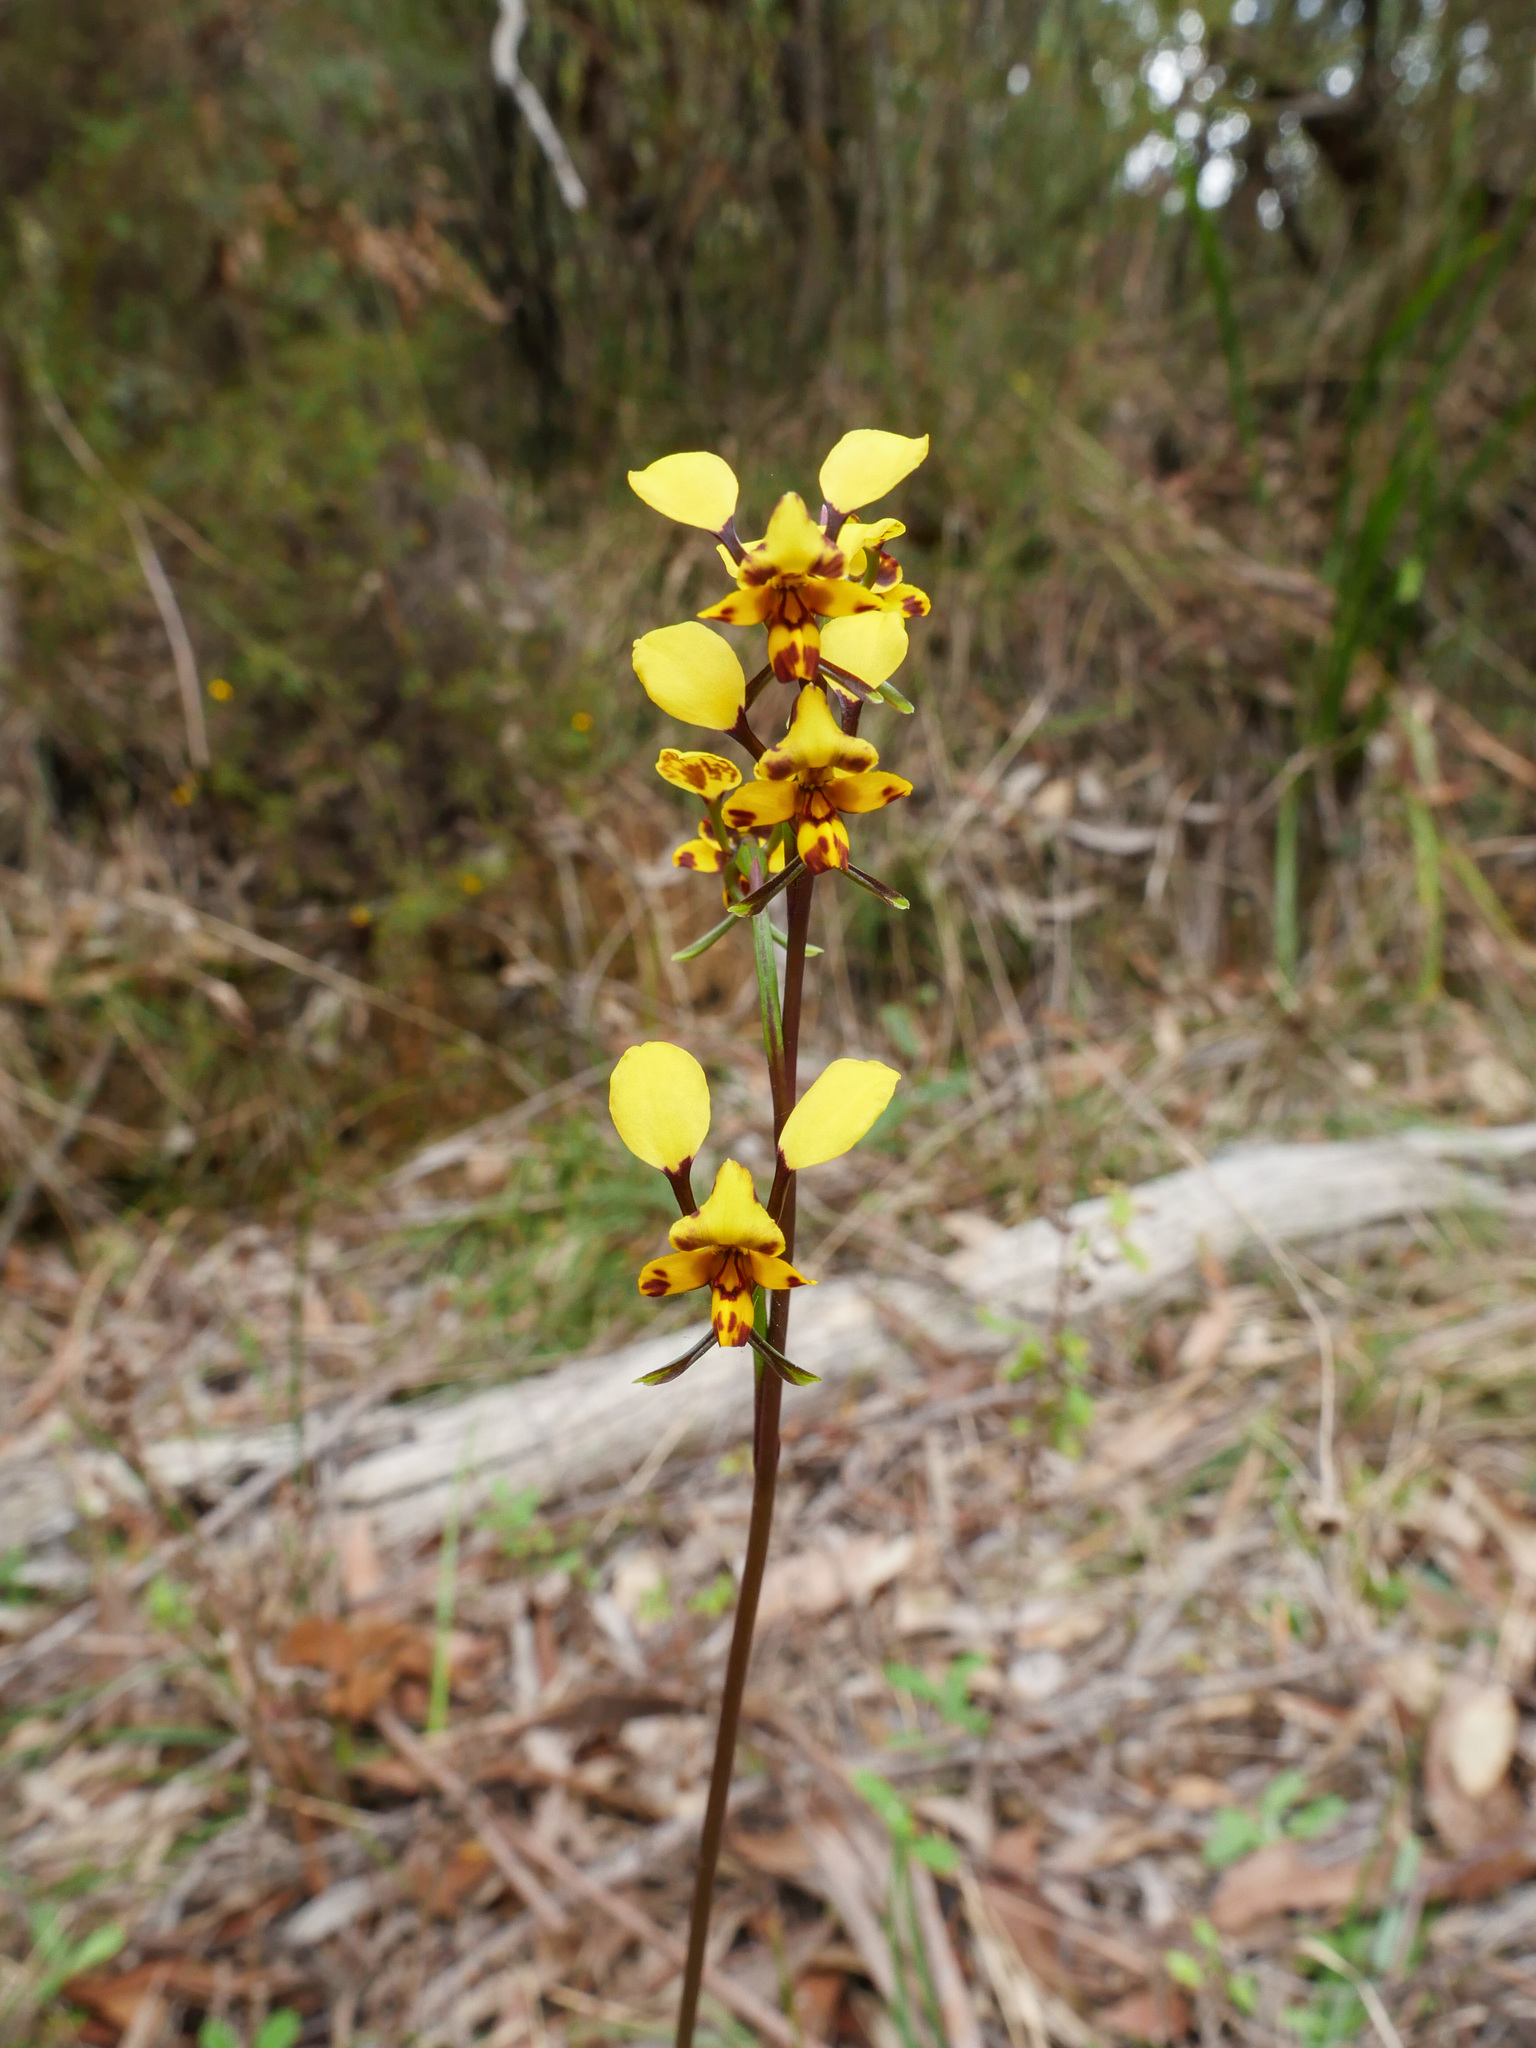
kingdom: Plantae
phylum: Tracheophyta
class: Liliopsida
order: Asparagales
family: Orchidaceae
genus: Diuris
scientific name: Diuris pardina
